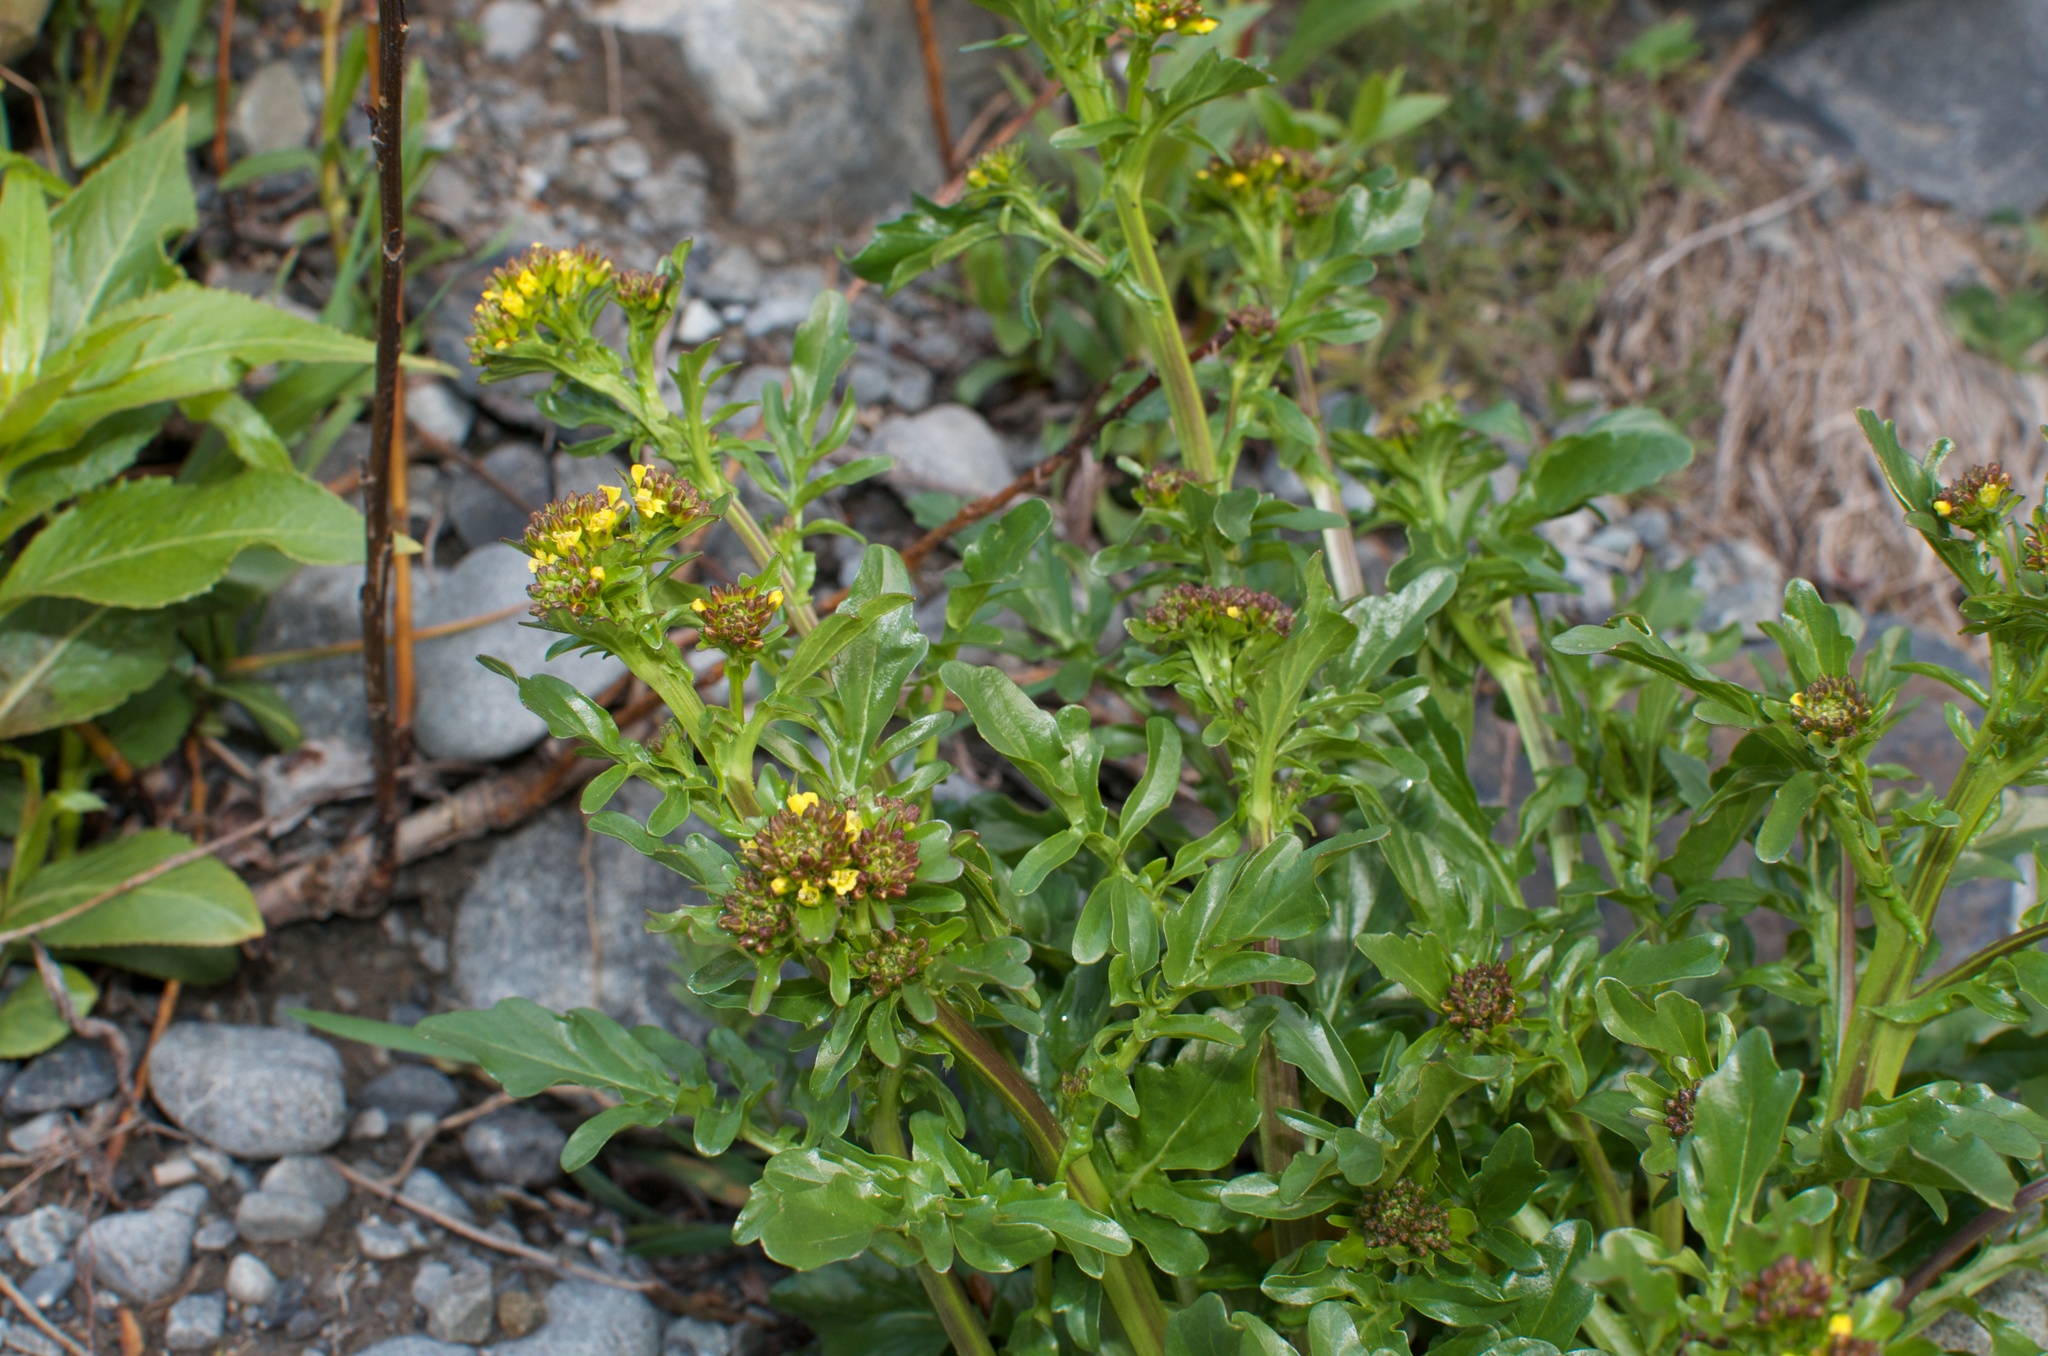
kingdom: Plantae
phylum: Tracheophyta
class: Magnoliopsida
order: Brassicales
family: Brassicaceae
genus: Barbarea
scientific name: Barbarea intermedia
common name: Medium-flowered winter-cress
